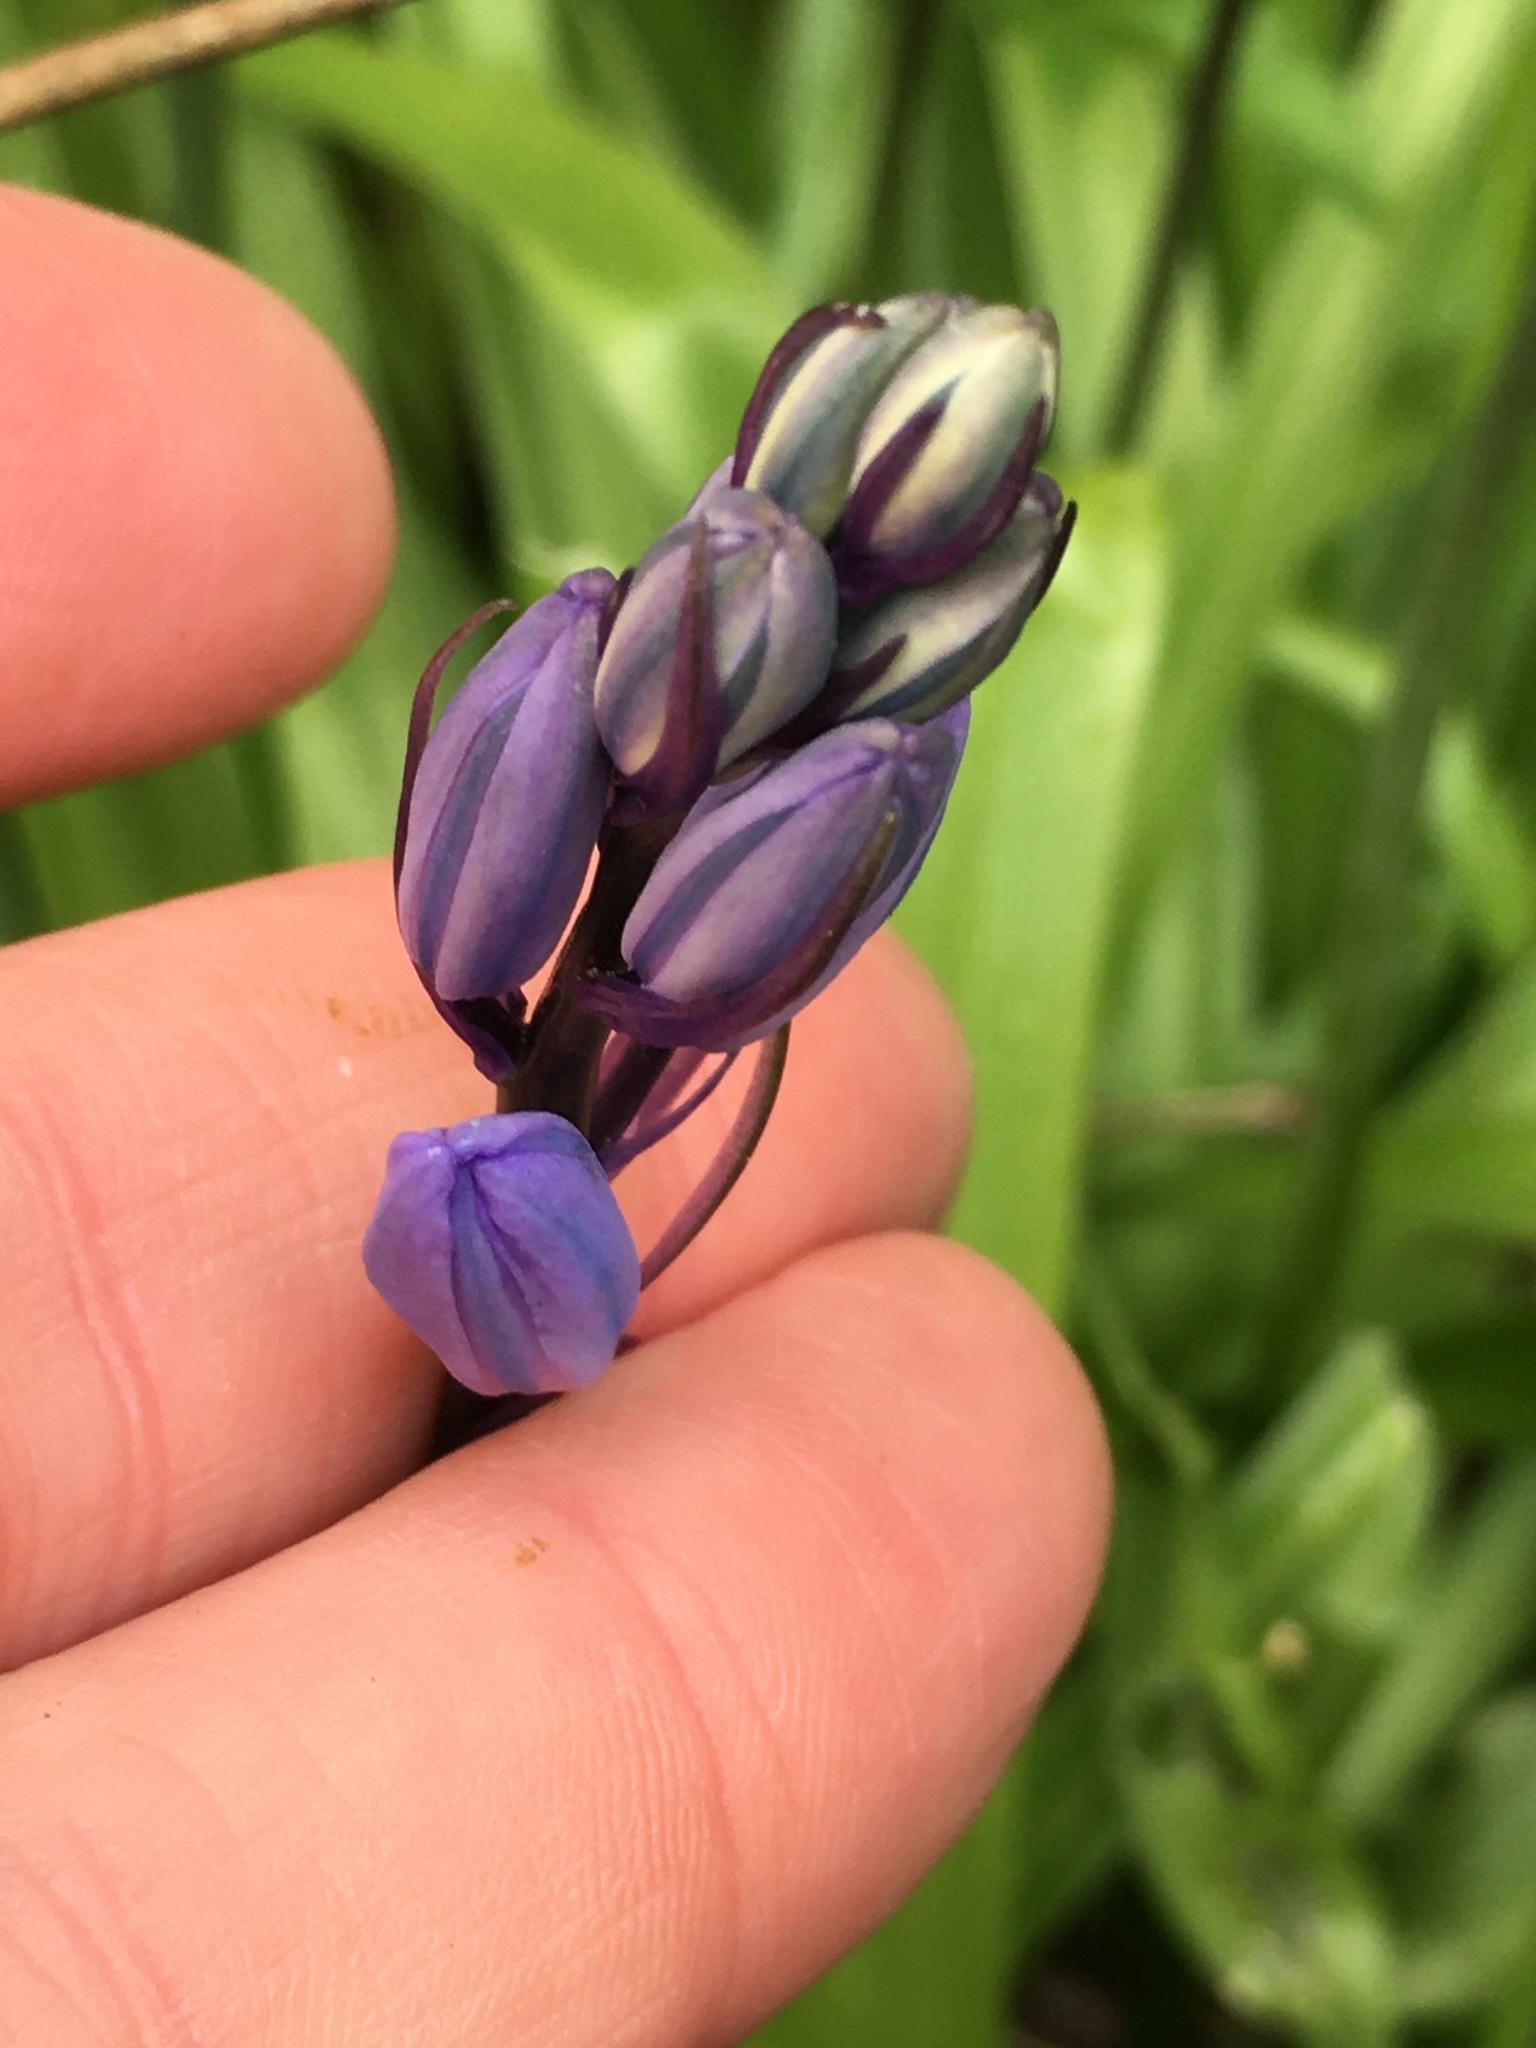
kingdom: Plantae
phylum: Tracheophyta
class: Liliopsida
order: Asparagales
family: Asparagaceae
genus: Hyacinthoides
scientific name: Hyacinthoides hispanica
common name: Spanish bluebell
